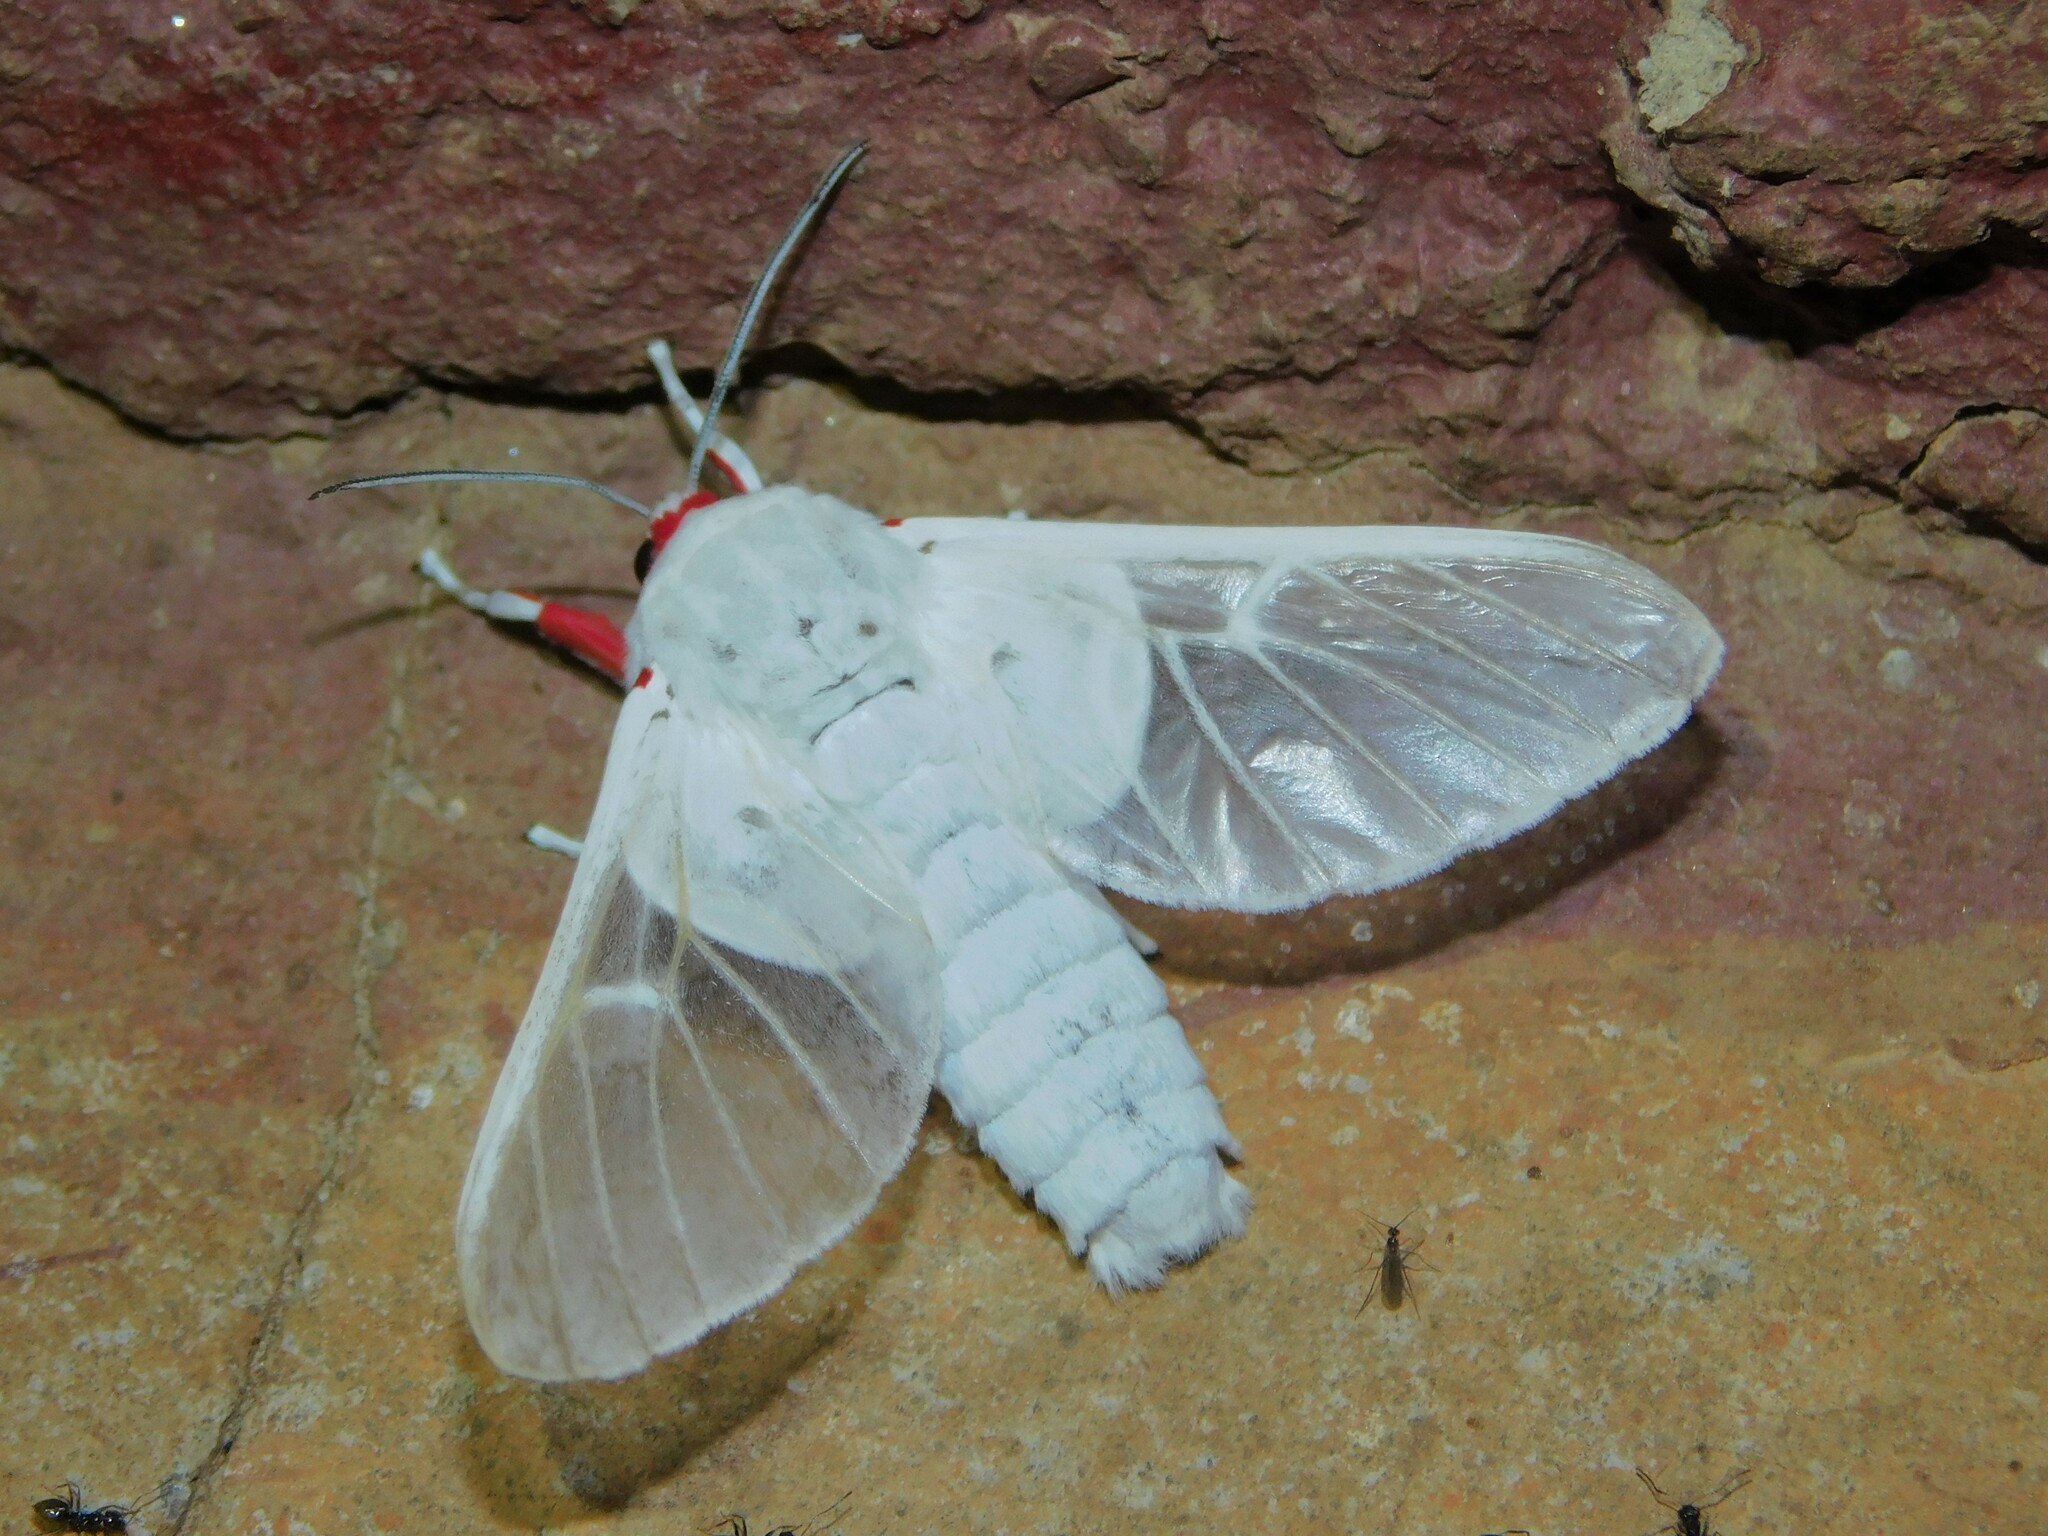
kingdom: Animalia
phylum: Arthropoda
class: Insecta
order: Lepidoptera
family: Erebidae
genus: Balacra
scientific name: Balacra pulchra
